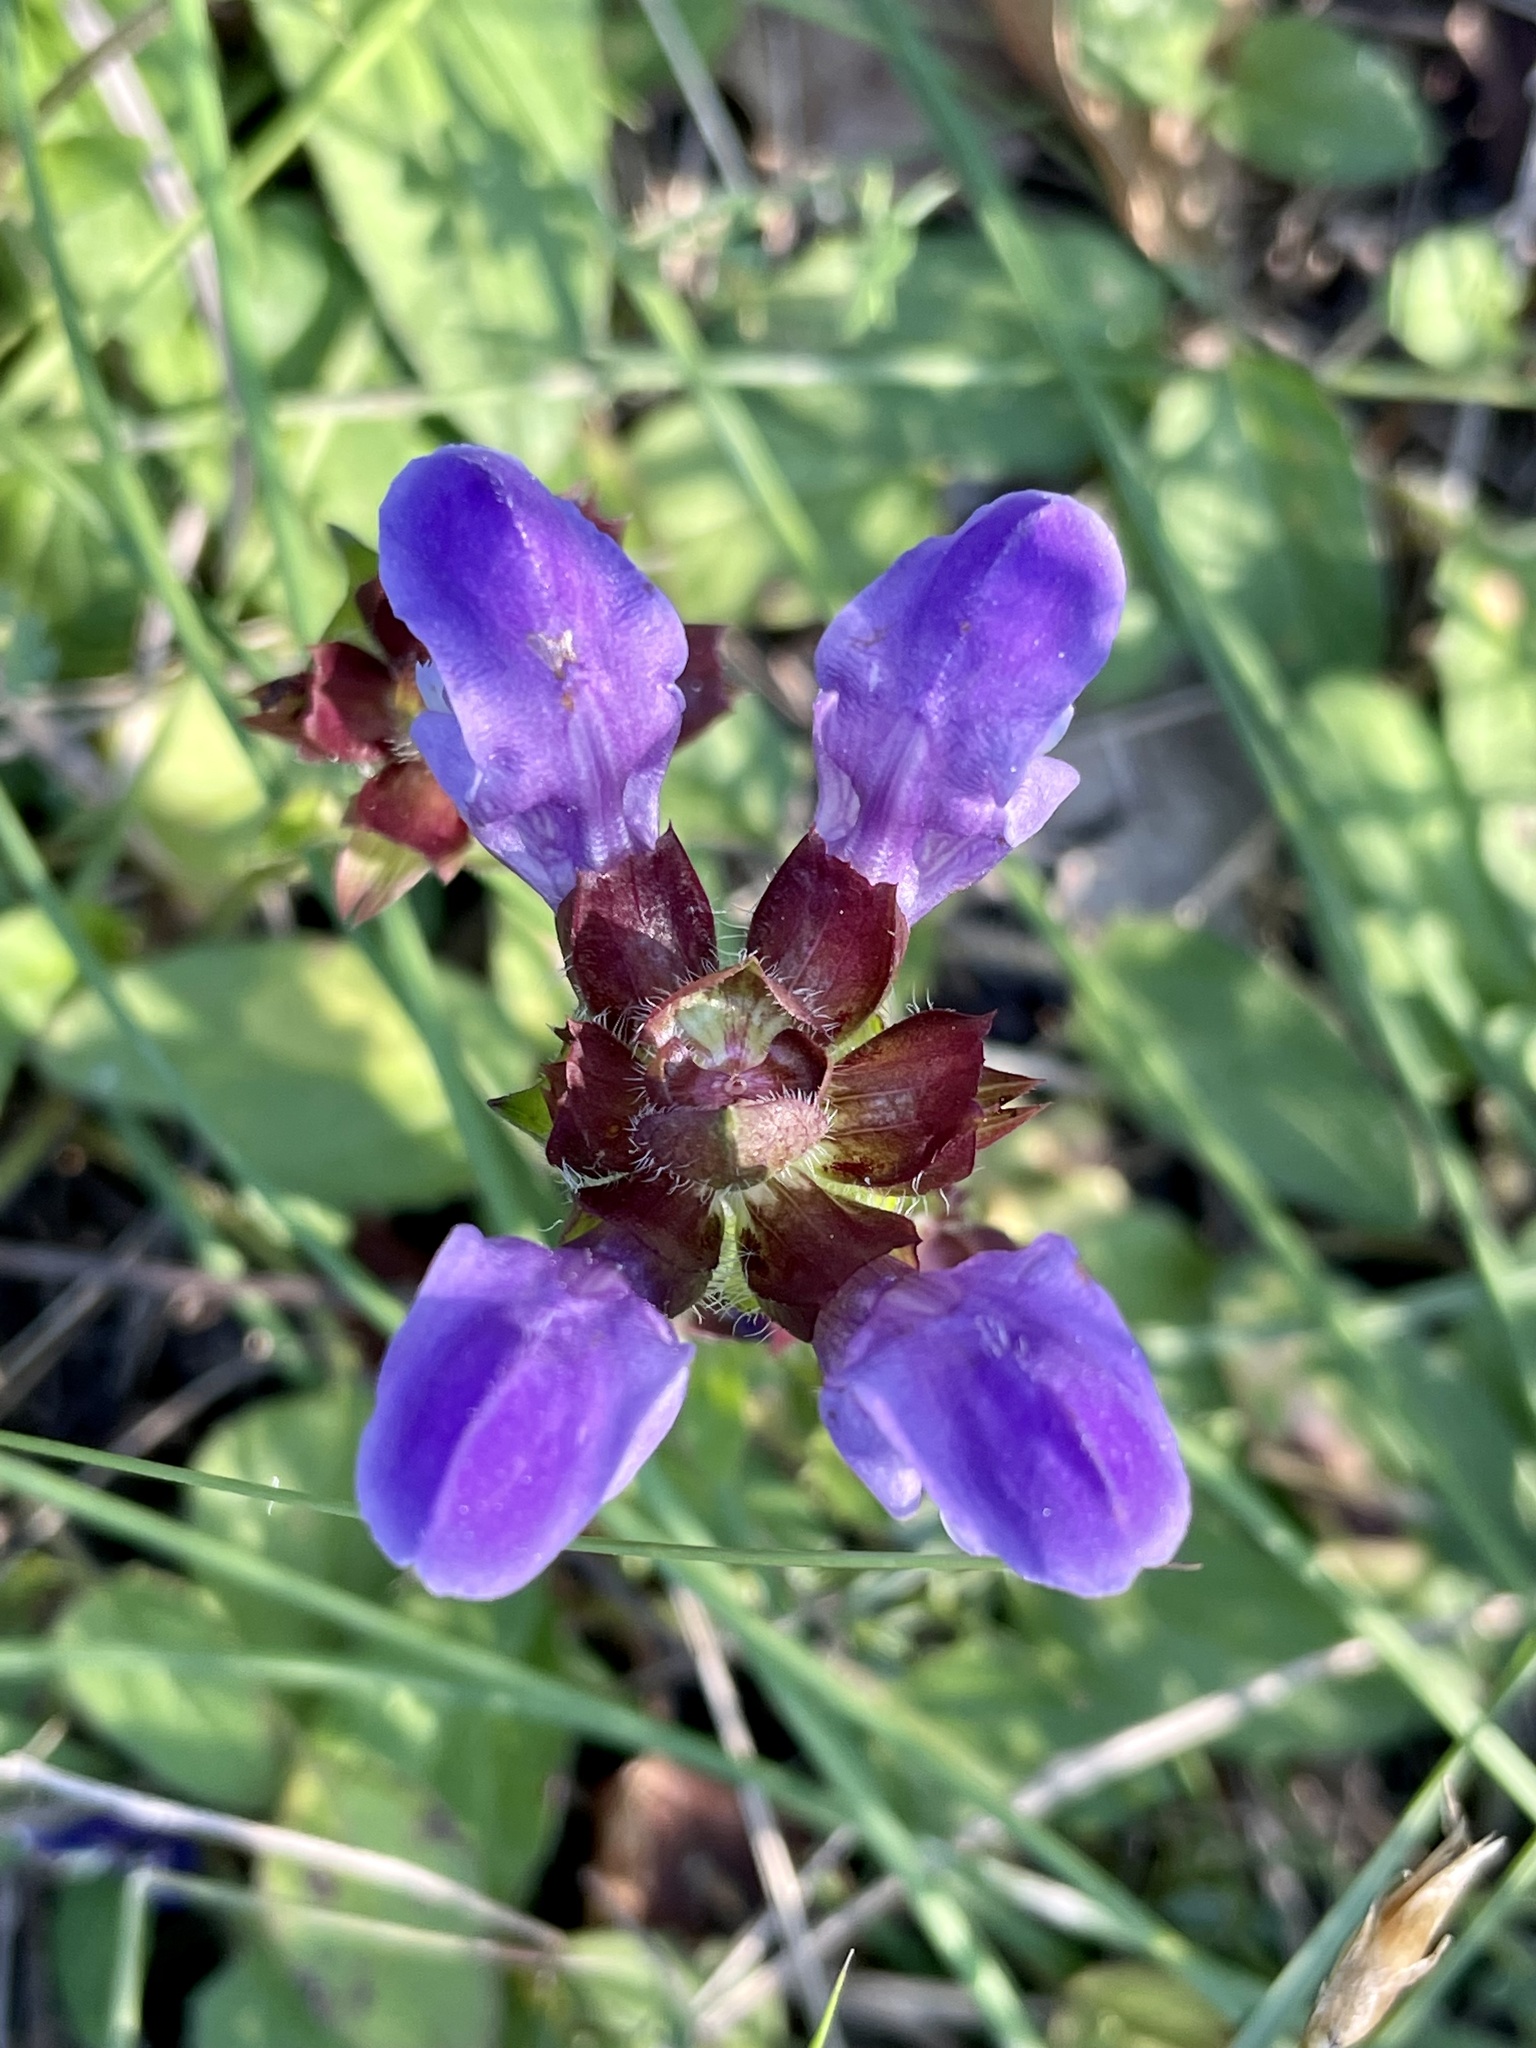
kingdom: Plantae
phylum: Tracheophyta
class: Magnoliopsida
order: Lamiales
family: Lamiaceae
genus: Prunella
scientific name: Prunella grandiflora
